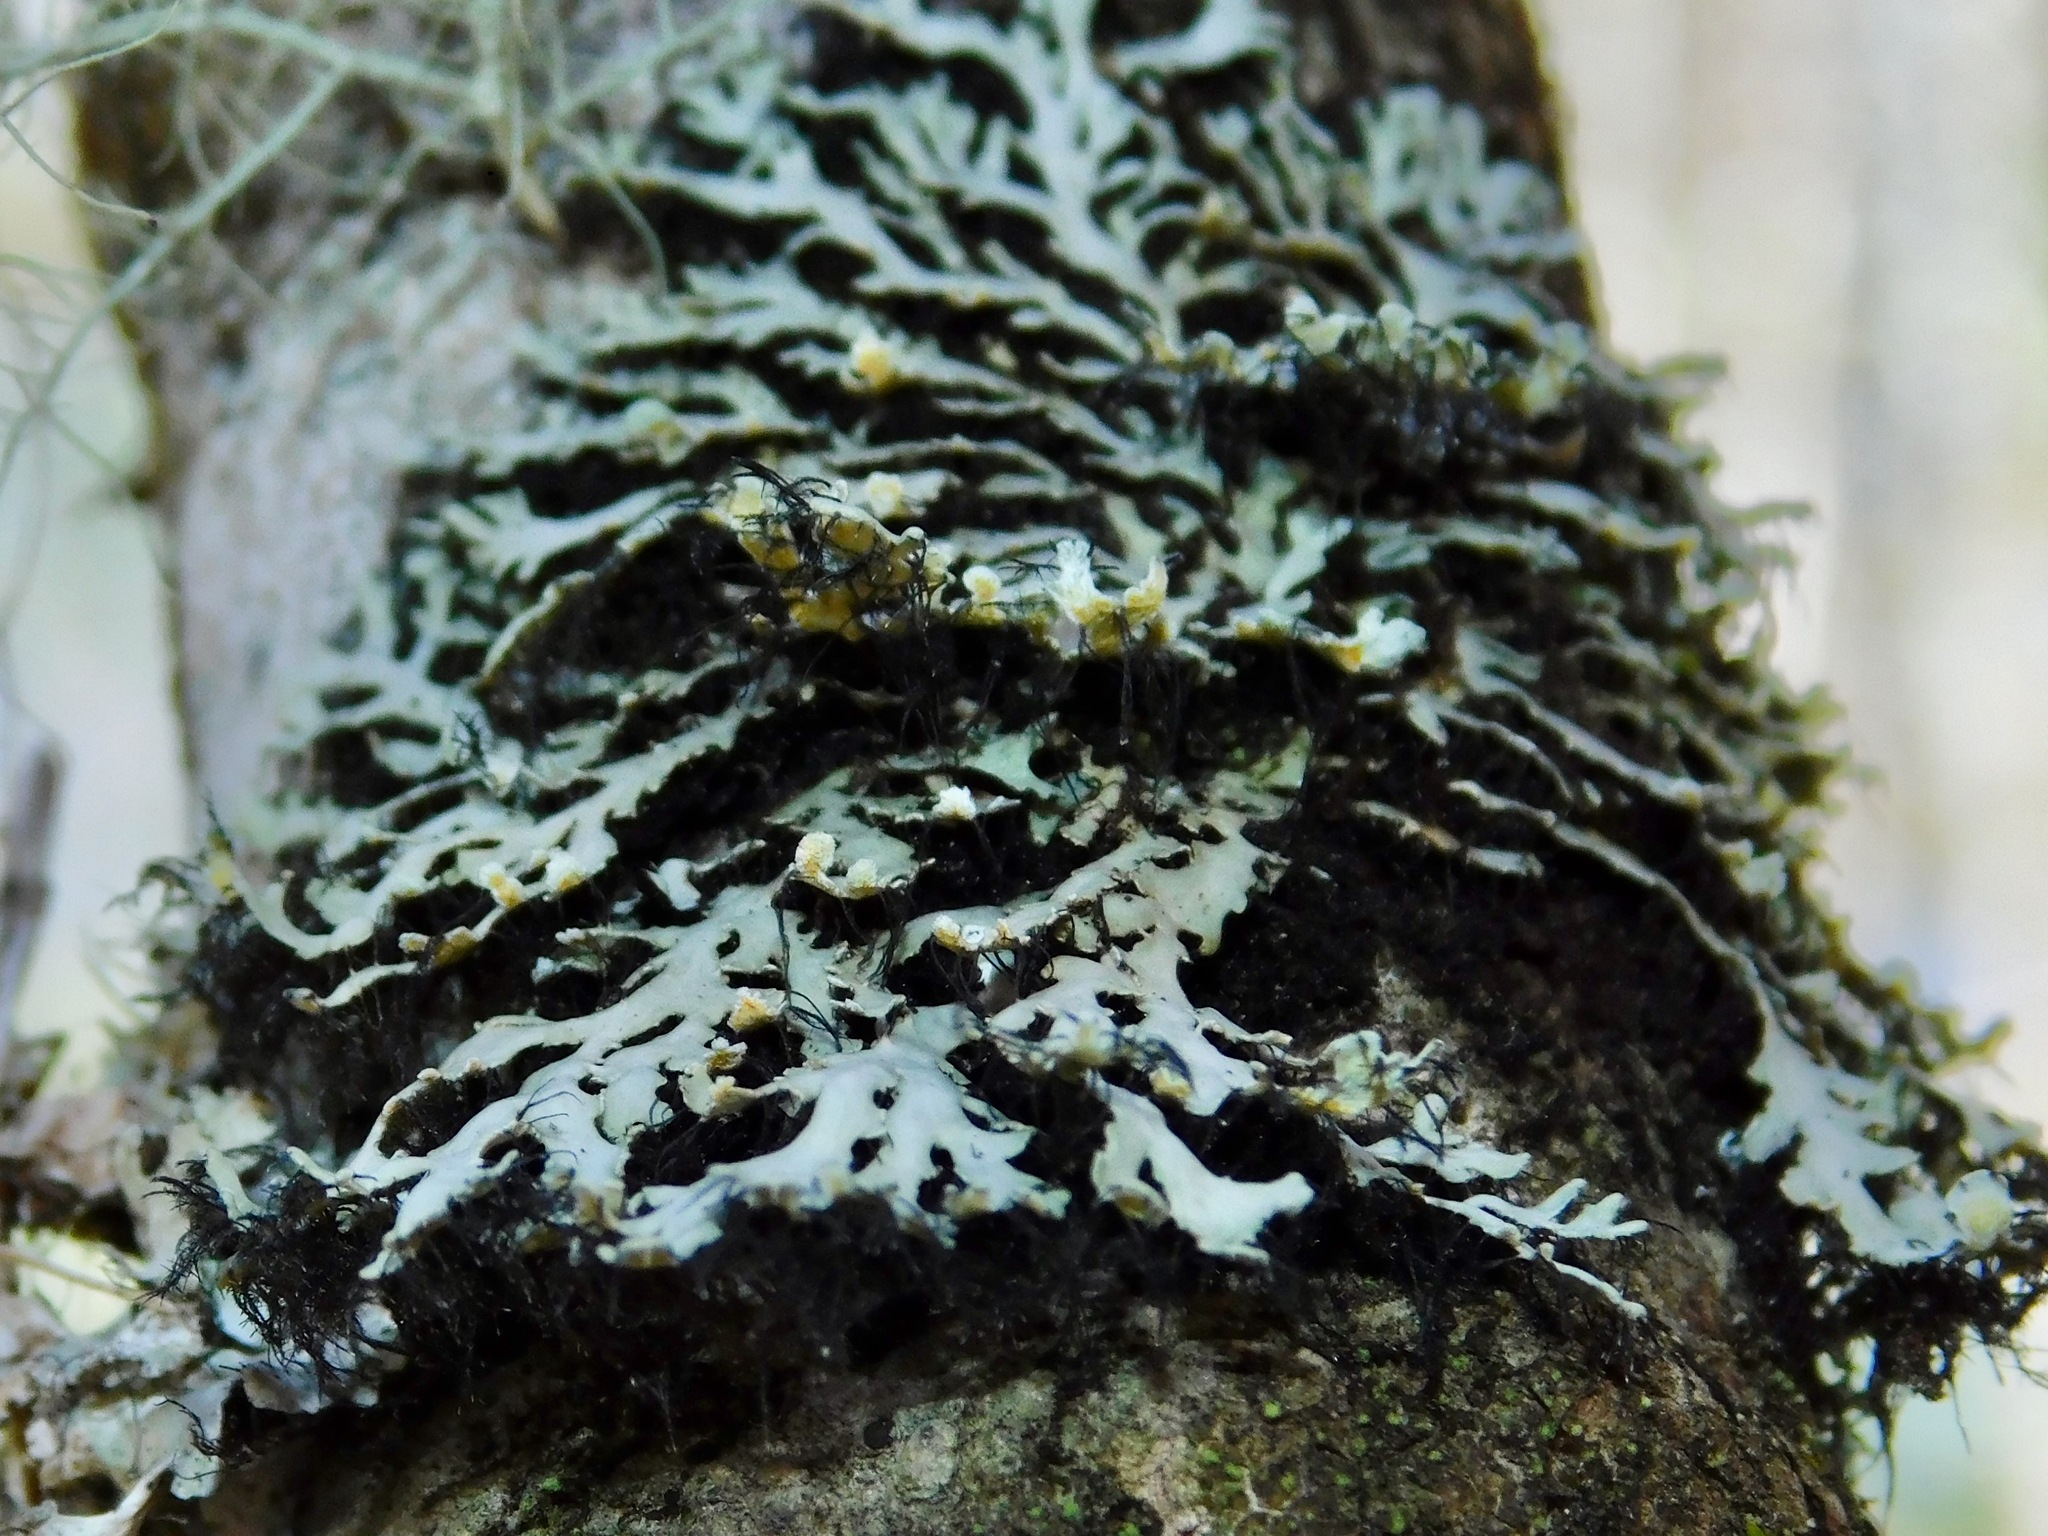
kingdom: Fungi
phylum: Ascomycota
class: Lecanoromycetes
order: Caliciales
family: Physciaceae
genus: Polyblastidium
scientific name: Polyblastidium neglectum
